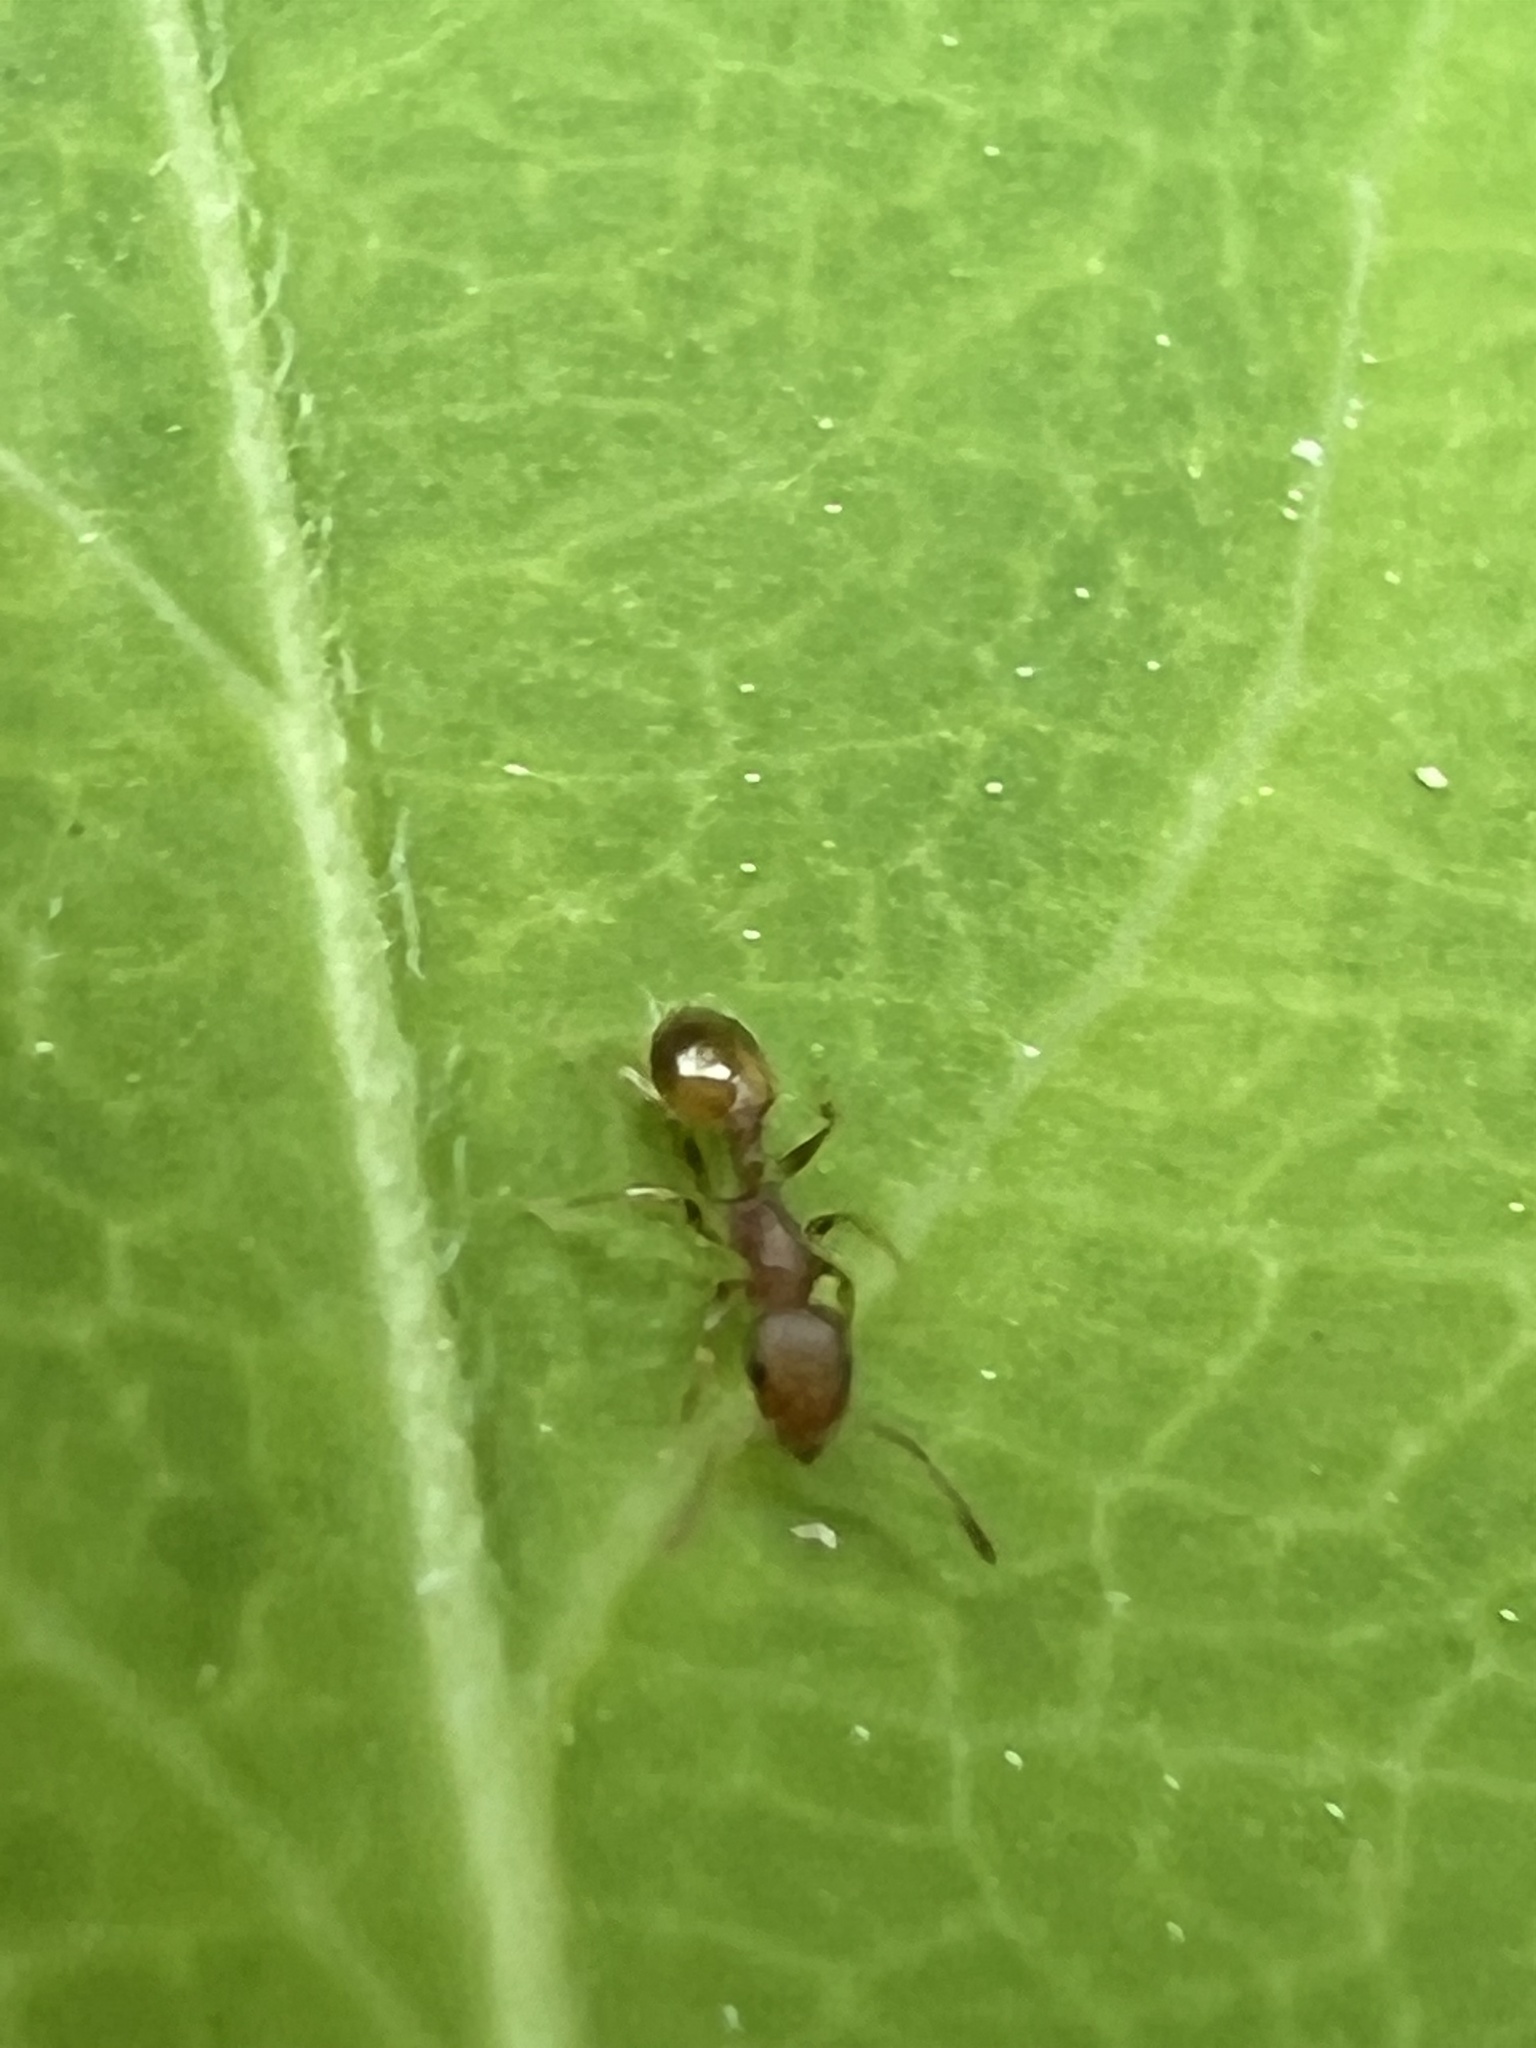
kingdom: Animalia
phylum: Arthropoda
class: Insecta
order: Hymenoptera
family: Formicidae
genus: Temnothorax
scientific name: Temnothorax curvispinosus
